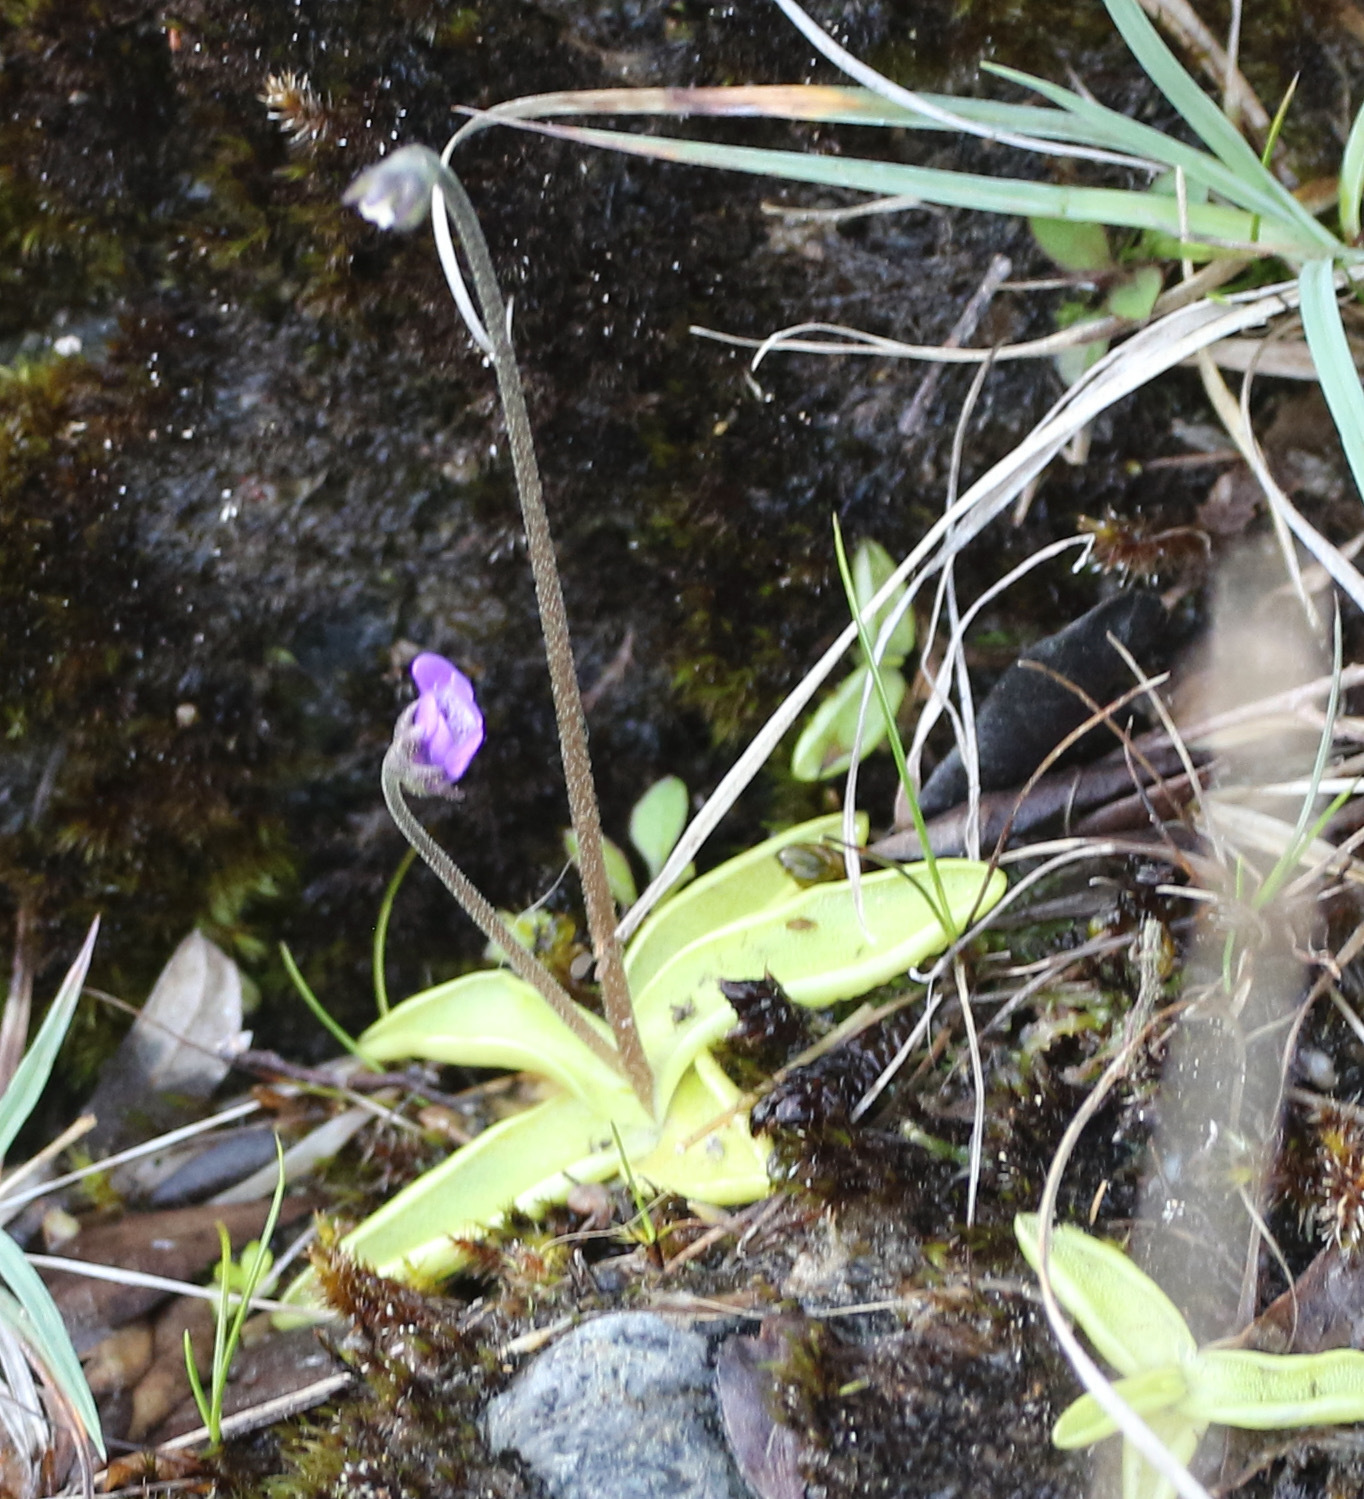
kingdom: Plantae
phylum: Tracheophyta
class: Magnoliopsida
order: Lamiales
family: Lentibulariaceae
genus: Pinguicula
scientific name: Pinguicula vulgaris
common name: Common butterwort
